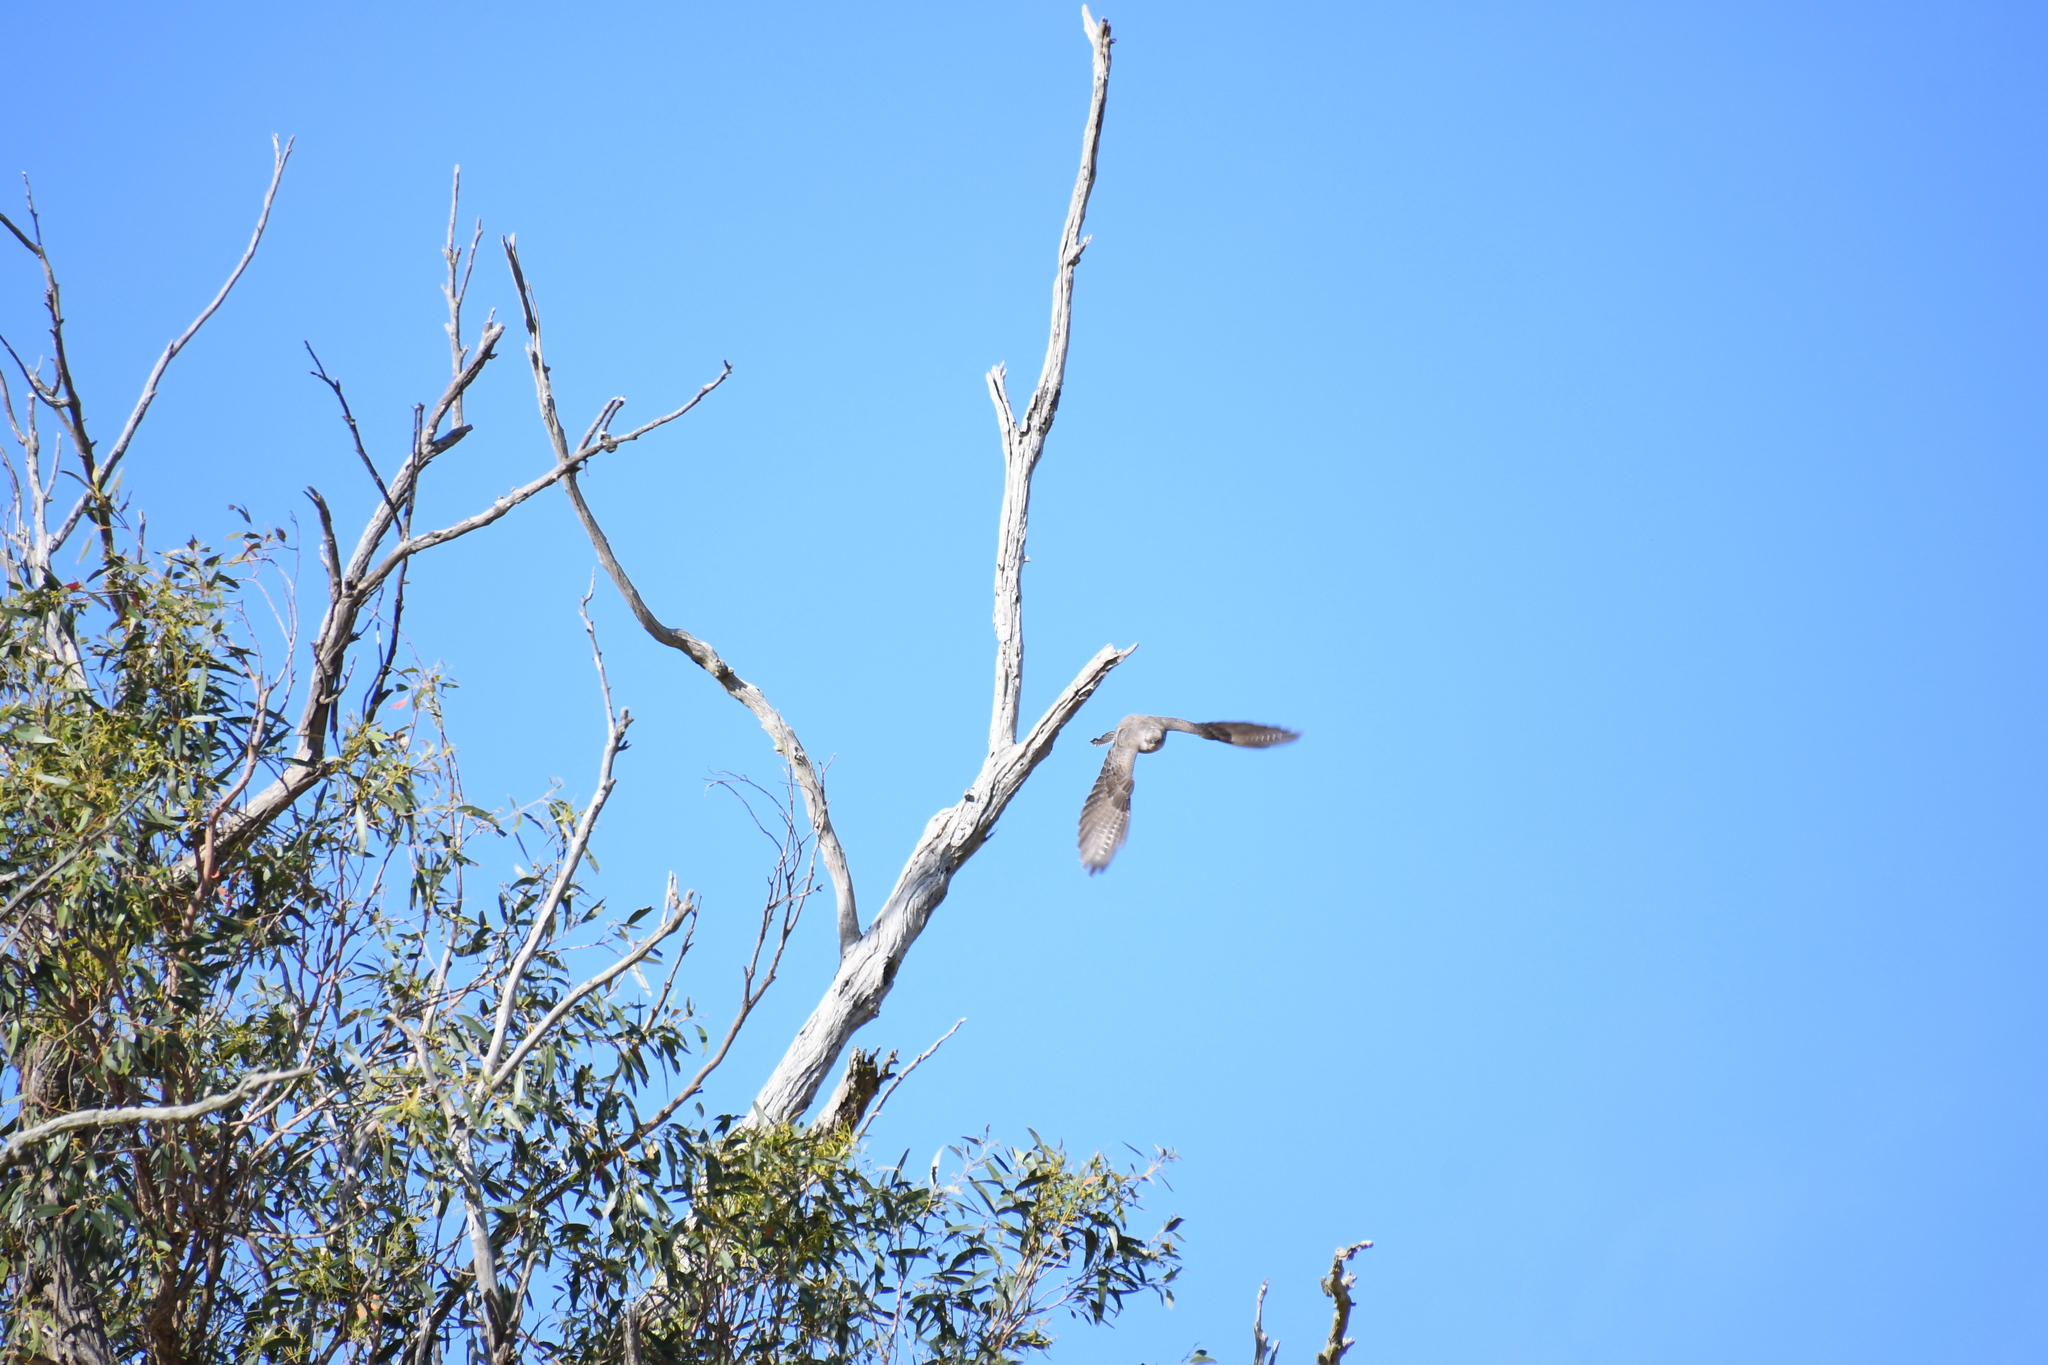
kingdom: Animalia
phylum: Chordata
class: Aves
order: Cuculiformes
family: Cuculidae
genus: Cuculus
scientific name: Cuculus pallidus
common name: Pallid cuckoo
